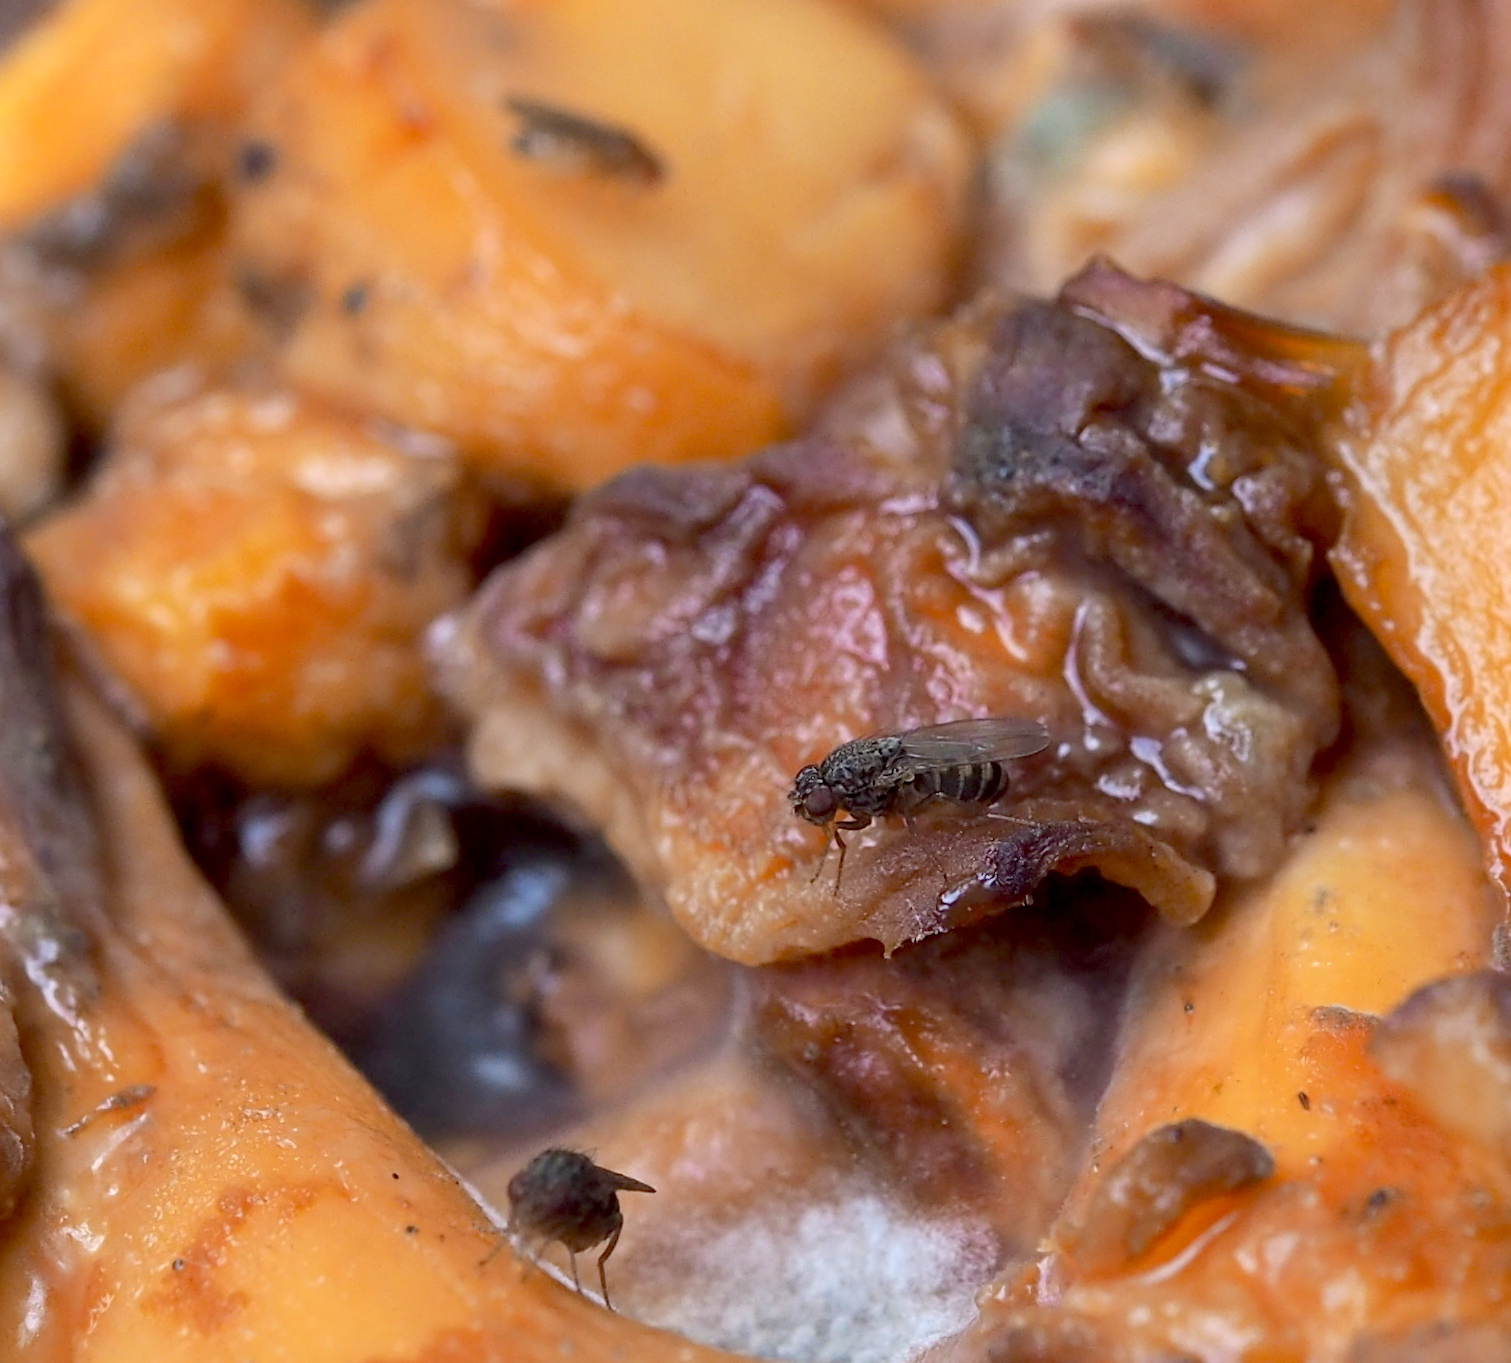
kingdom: Animalia
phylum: Arthropoda
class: Insecta
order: Diptera
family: Drosophilidae
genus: Drosophila
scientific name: Drosophila hydei
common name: Pomace fly
